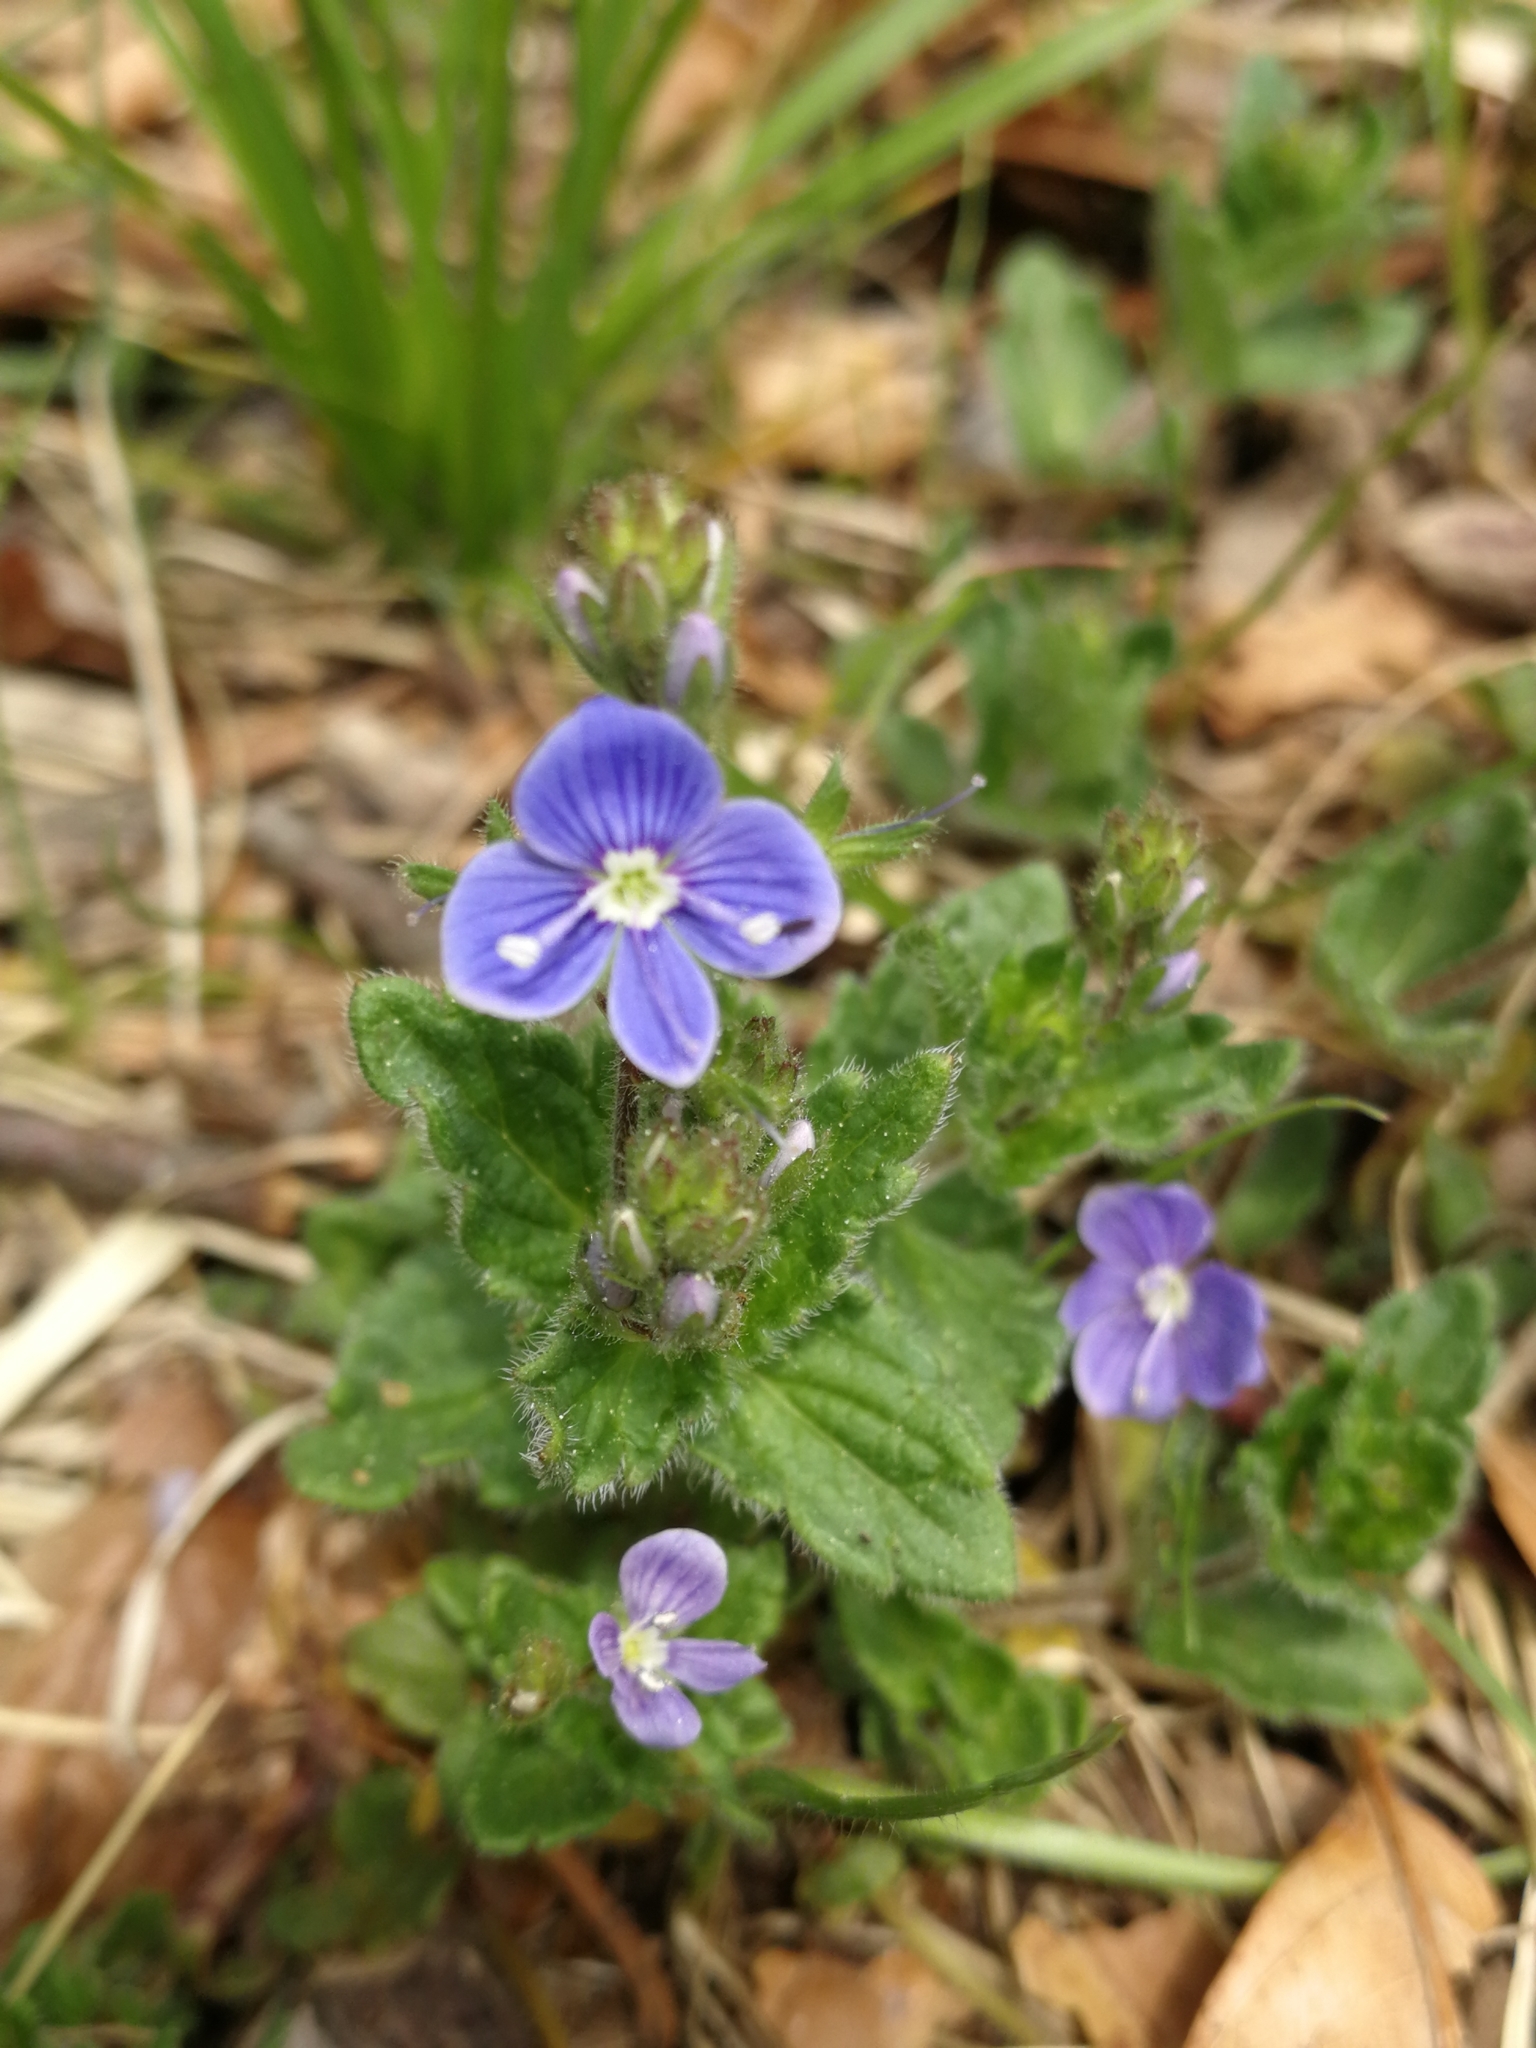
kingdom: Plantae
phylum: Tracheophyta
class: Magnoliopsida
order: Lamiales
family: Plantaginaceae
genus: Veronica
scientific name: Veronica chamaedrys
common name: Germander speedwell
